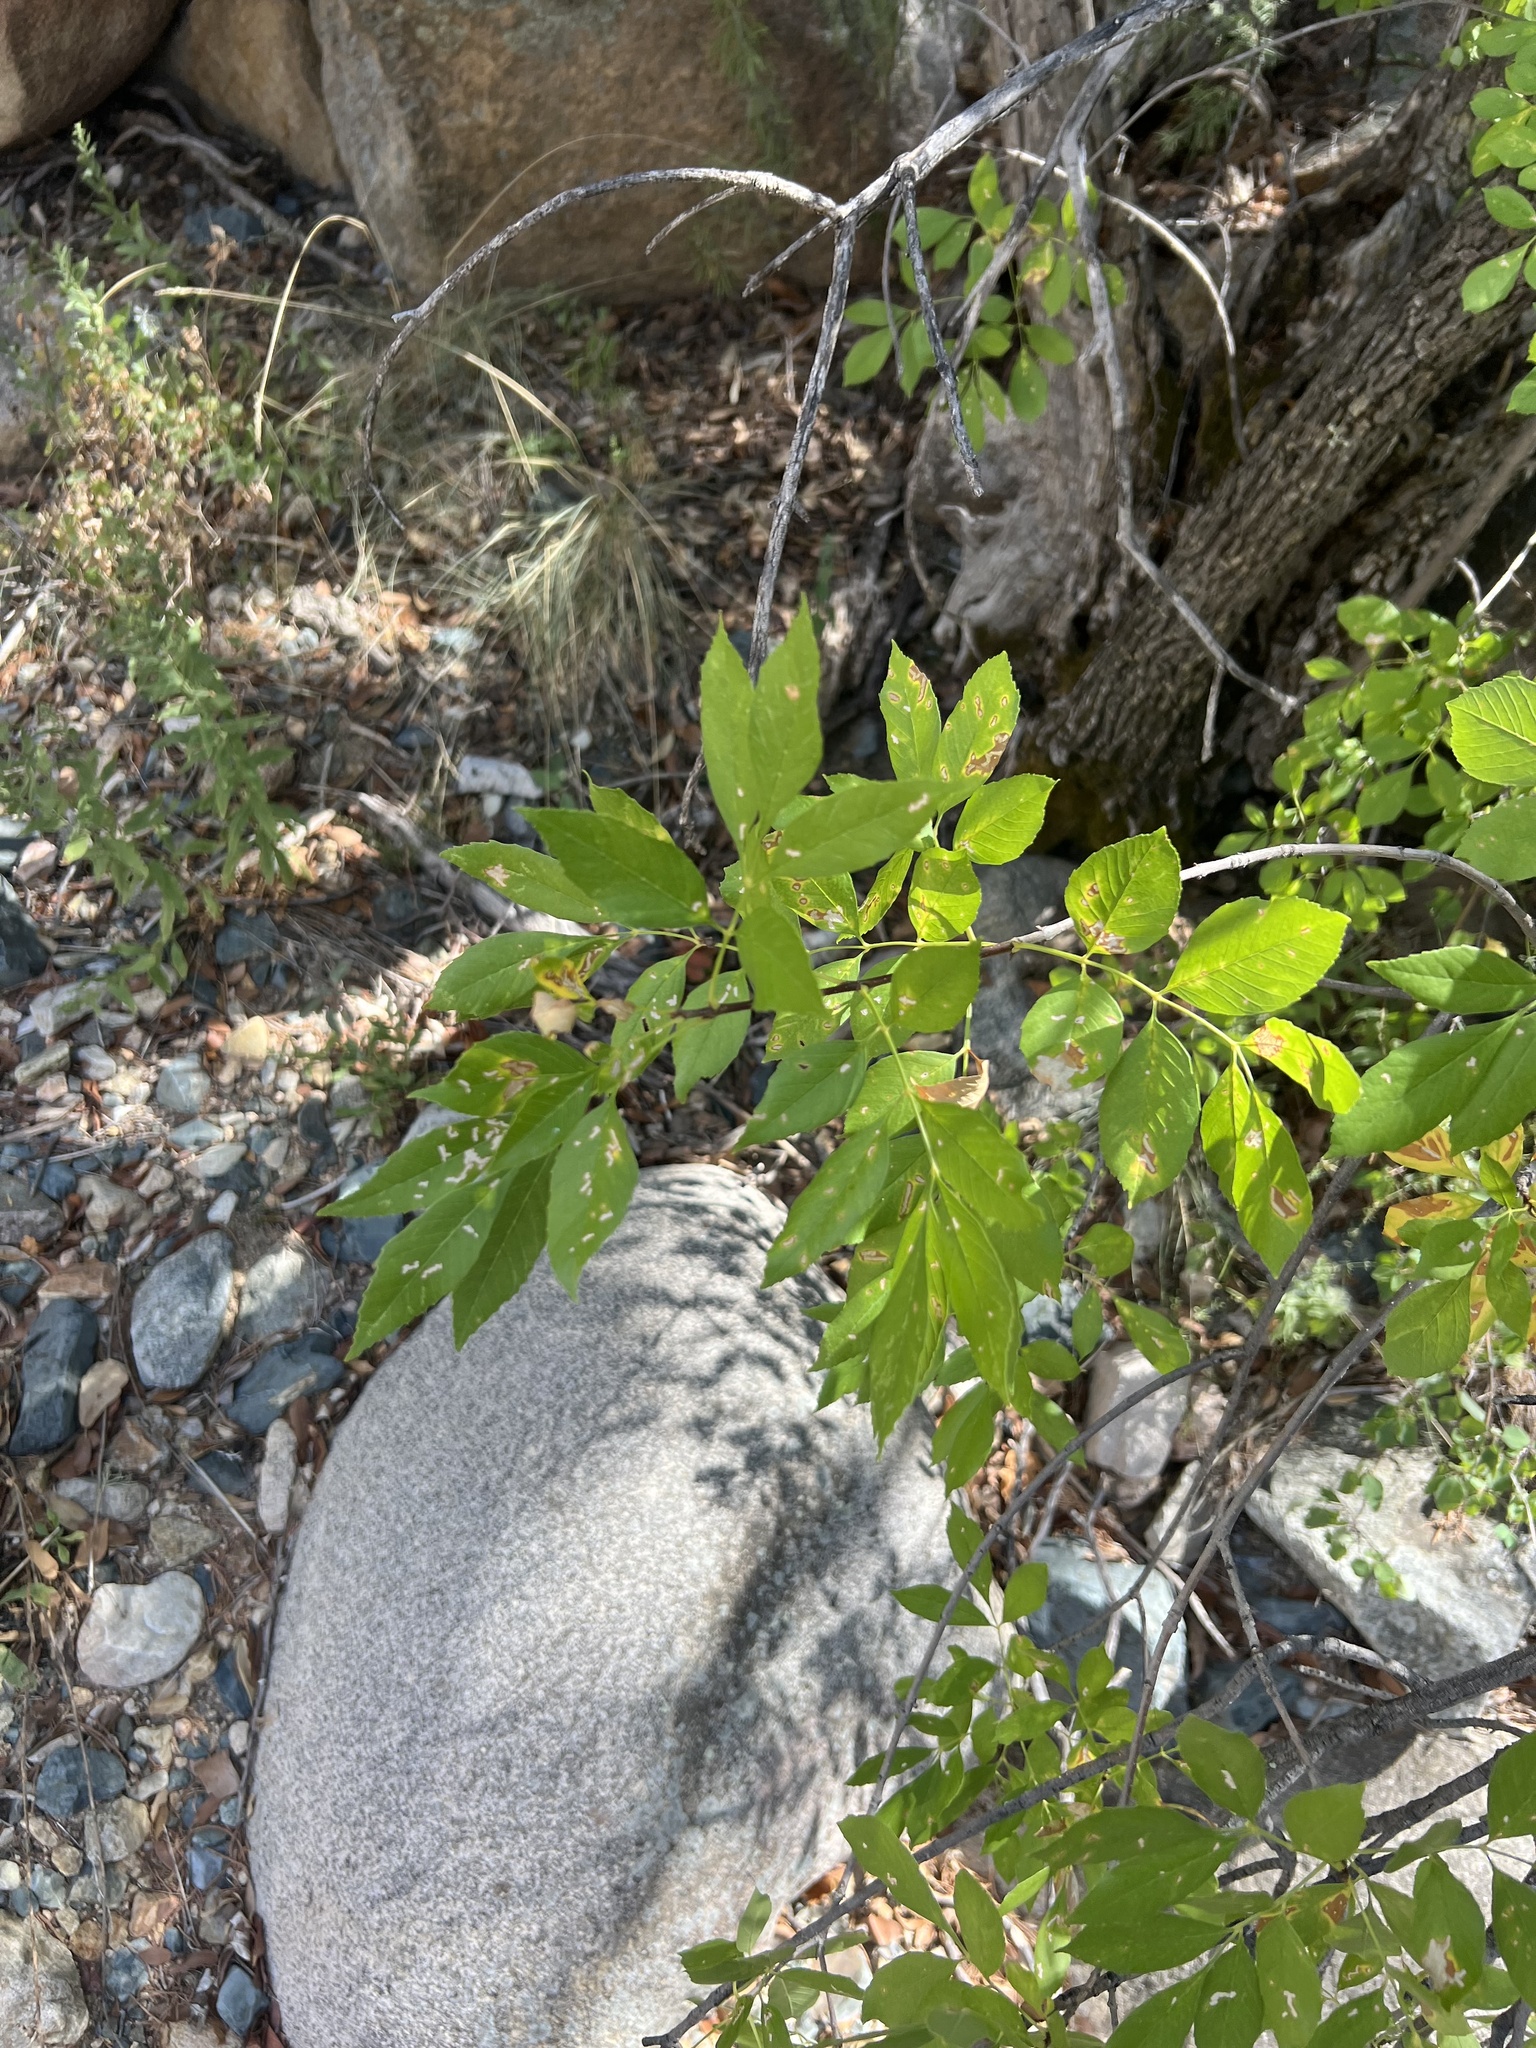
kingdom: Plantae
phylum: Tracheophyta
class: Magnoliopsida
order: Lamiales
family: Oleaceae
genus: Fraxinus
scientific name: Fraxinus velutina
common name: Arizon ash
